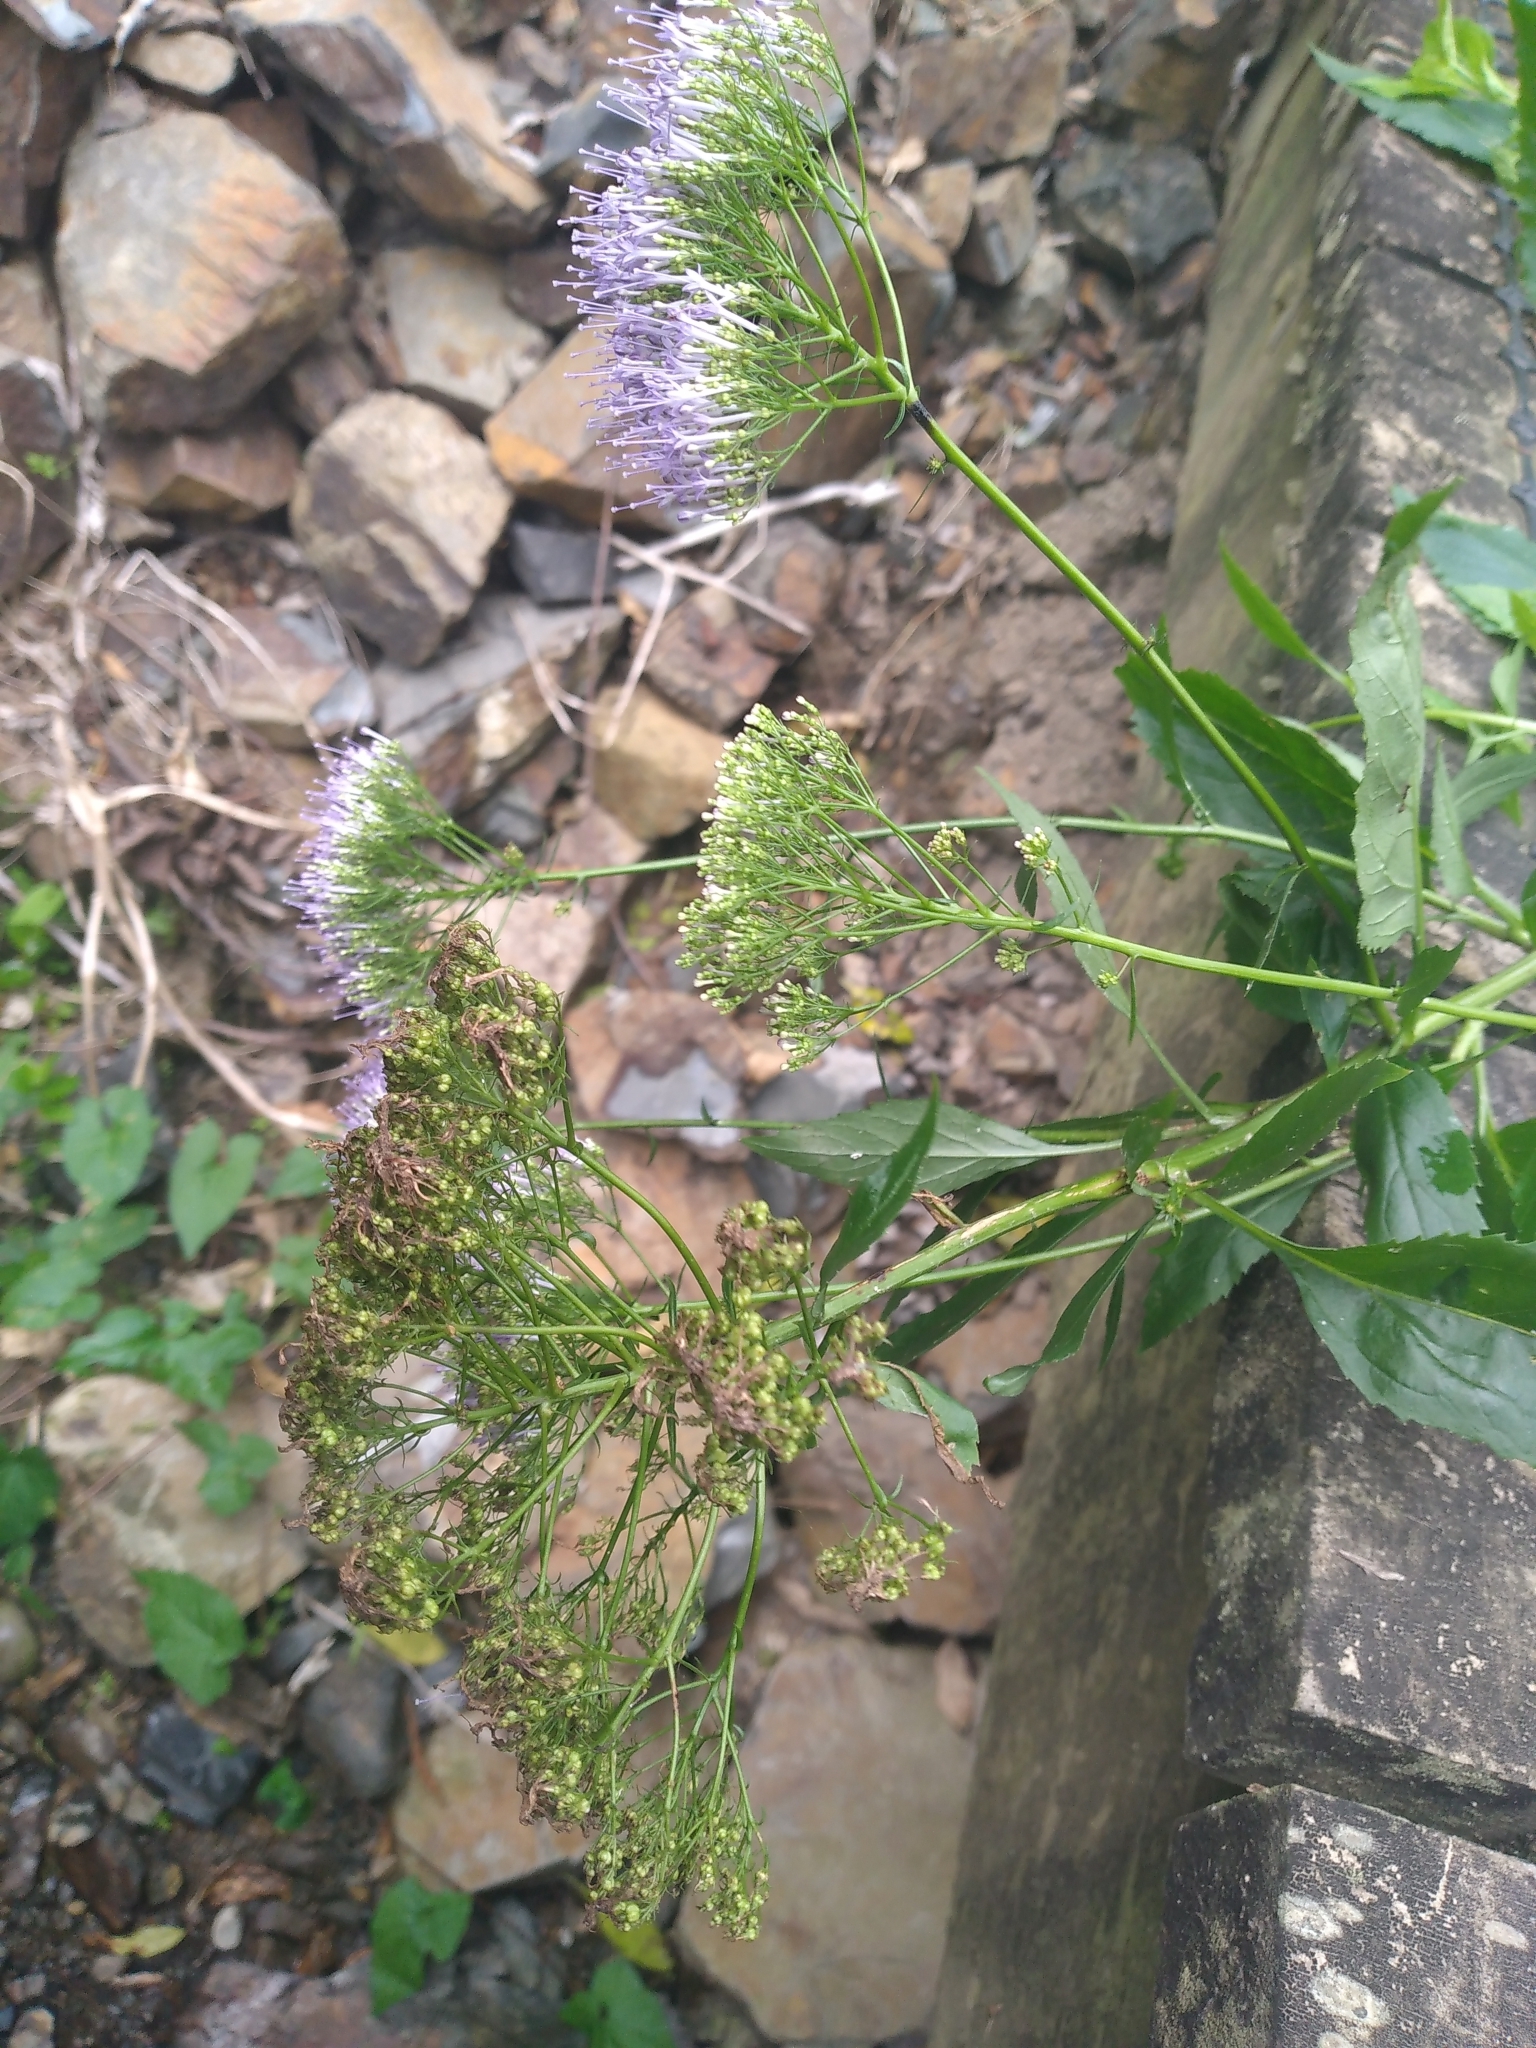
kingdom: Plantae
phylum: Tracheophyta
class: Magnoliopsida
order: Asterales
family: Campanulaceae
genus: Trachelium
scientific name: Trachelium caeruleum
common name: Throatwort
